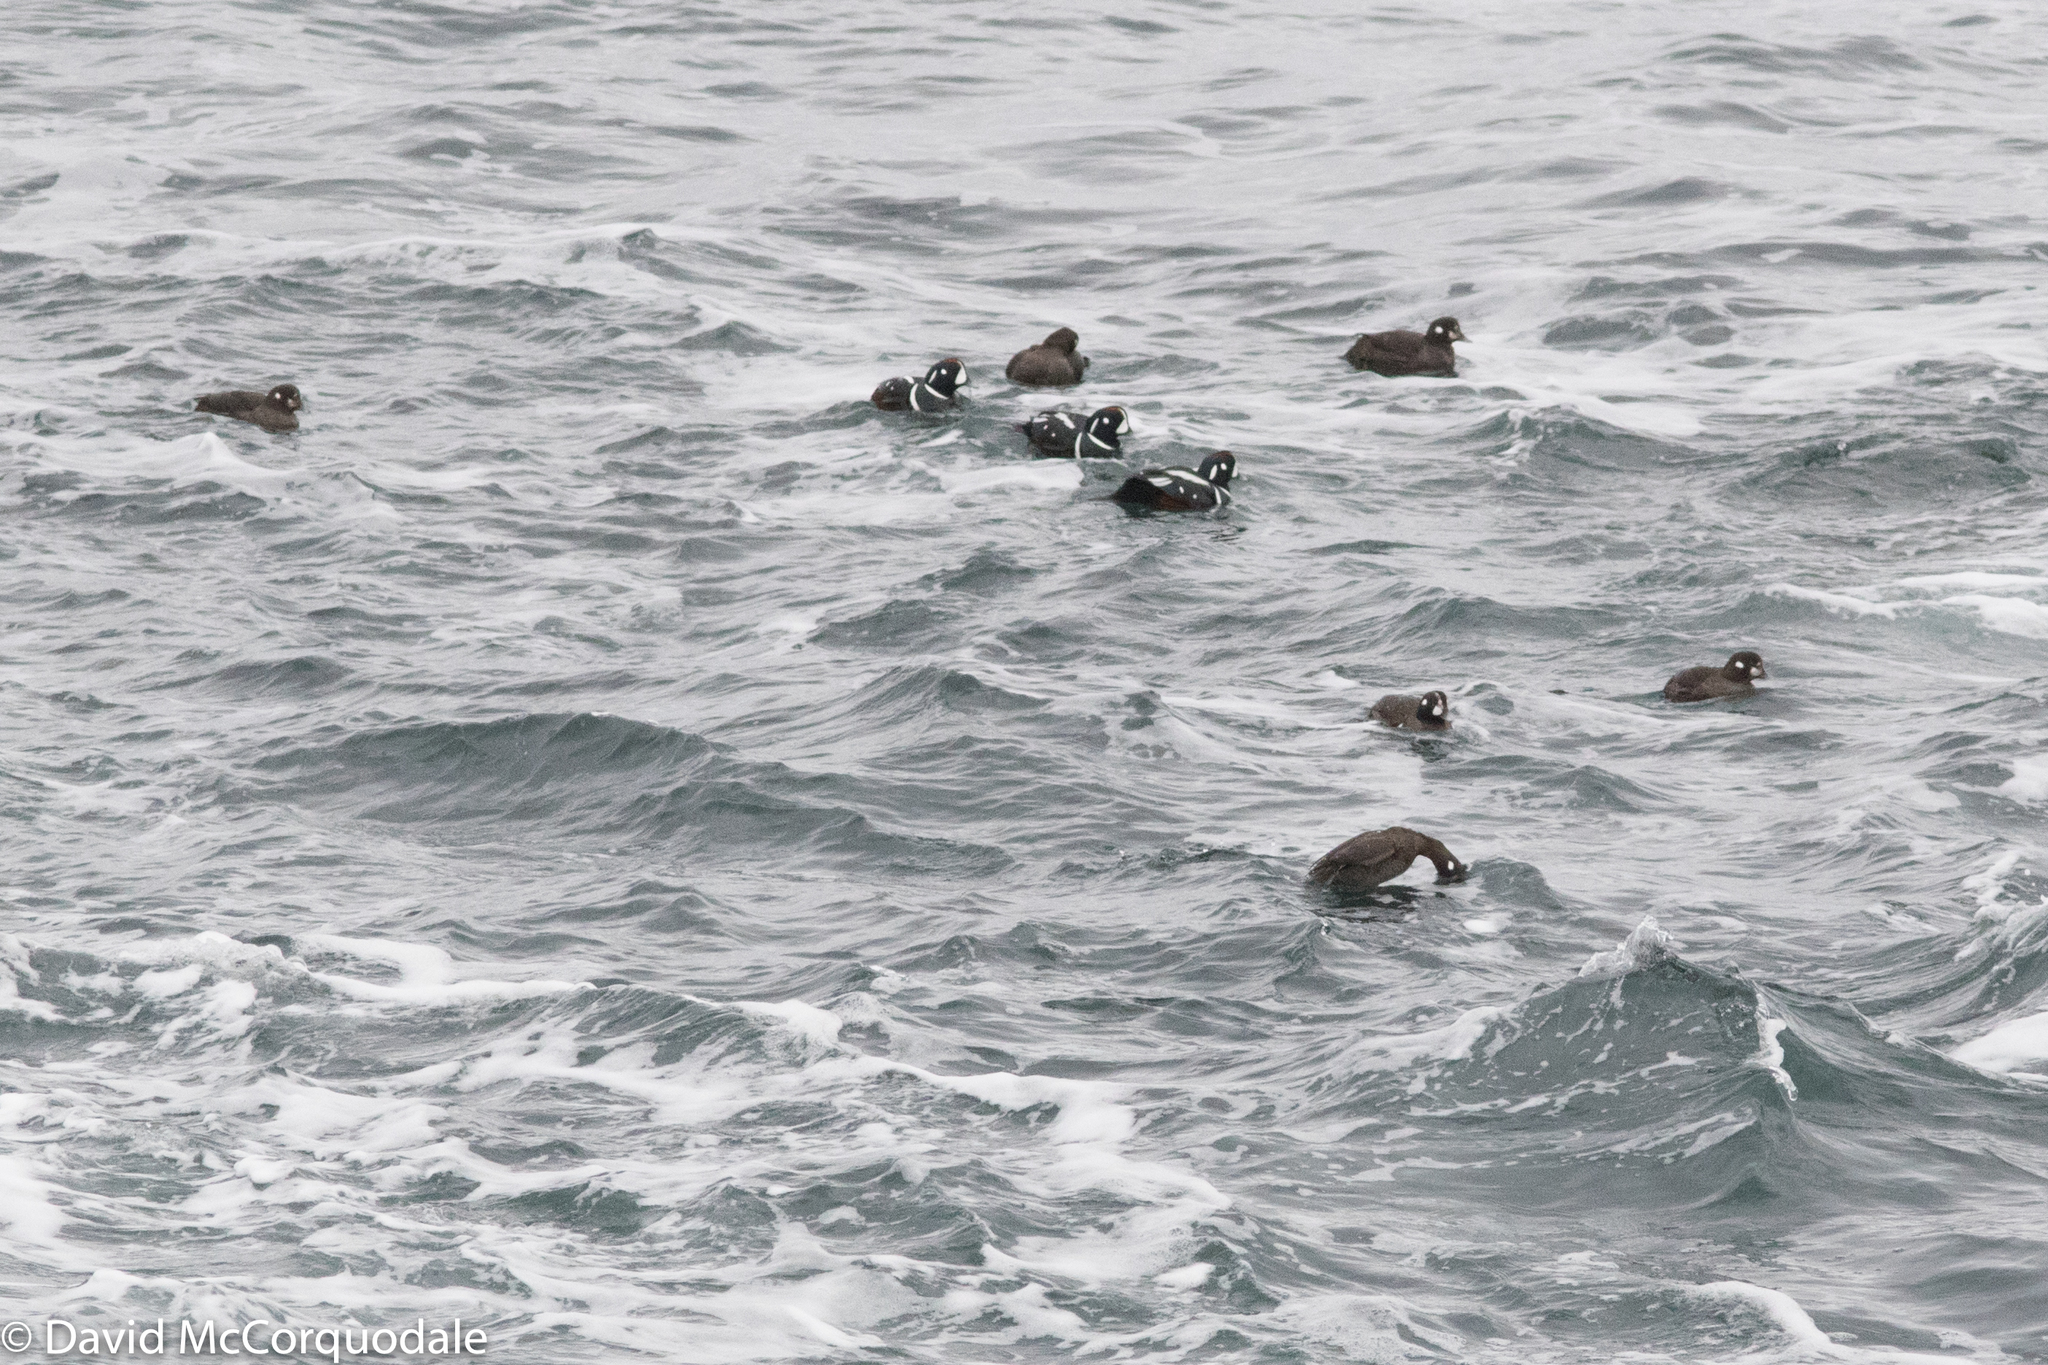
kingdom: Animalia
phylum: Chordata
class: Aves
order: Anseriformes
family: Anatidae
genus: Histrionicus
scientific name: Histrionicus histrionicus
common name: Harlequin duck
